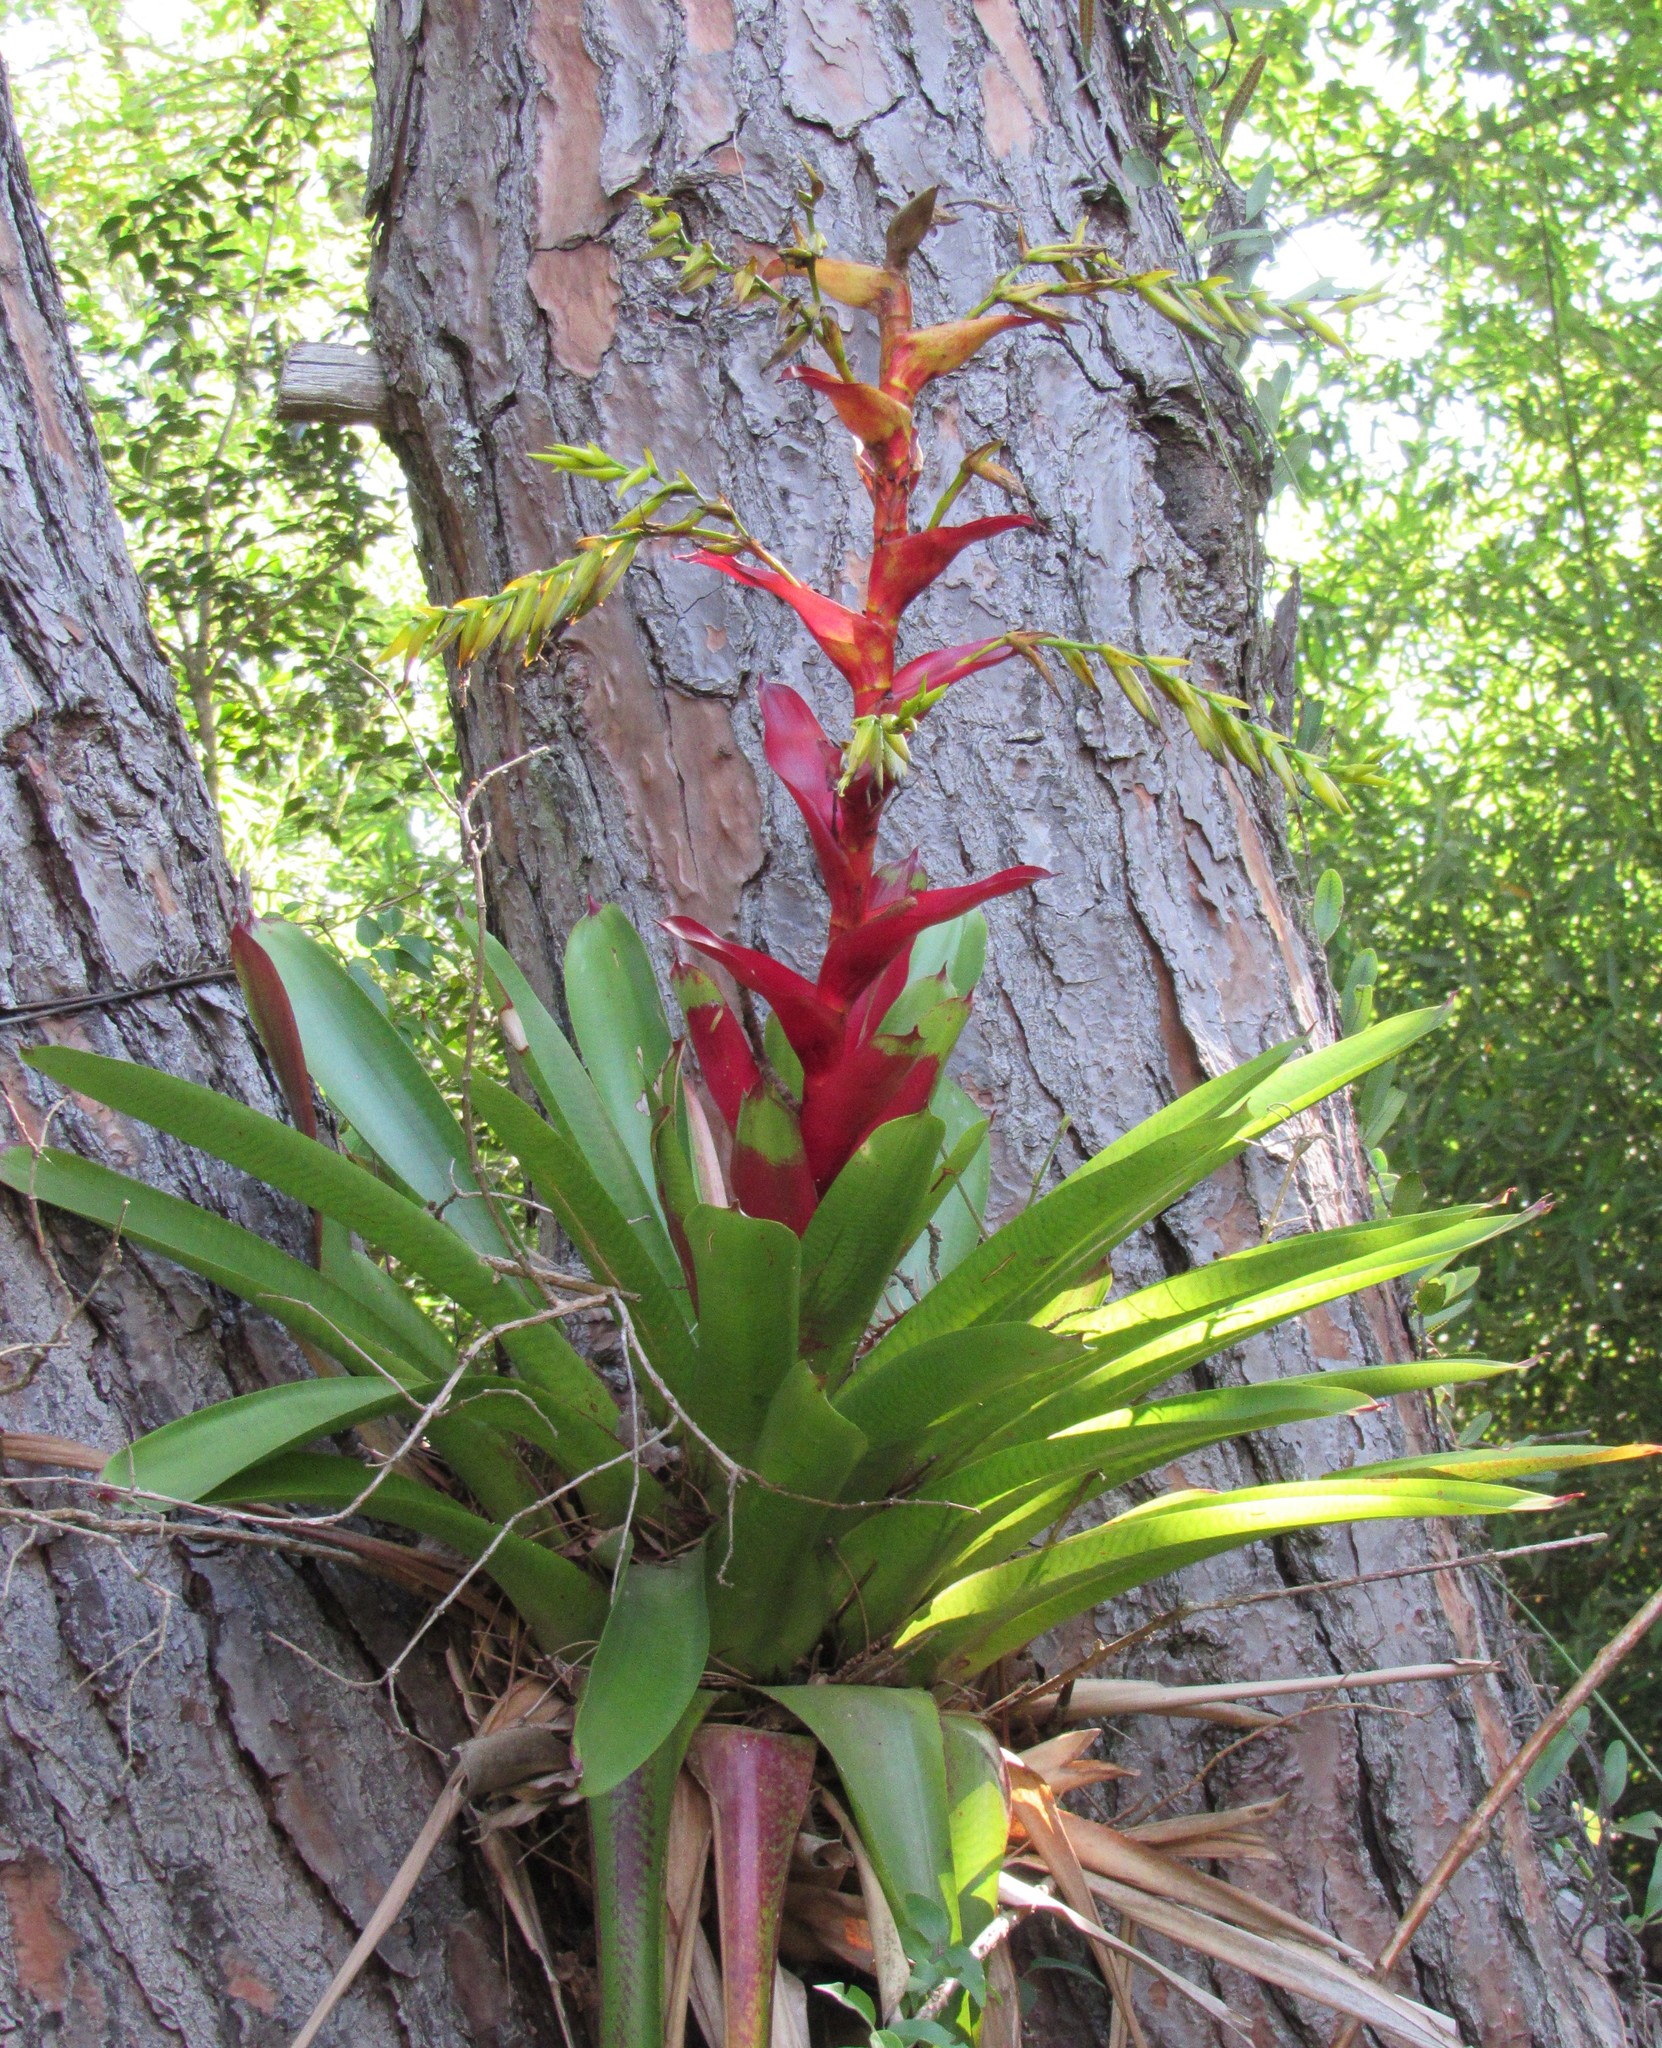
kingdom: Plantae
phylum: Tracheophyta
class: Liliopsida
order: Poales
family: Bromeliaceae
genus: Vriesea
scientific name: Vriesea reitzii
